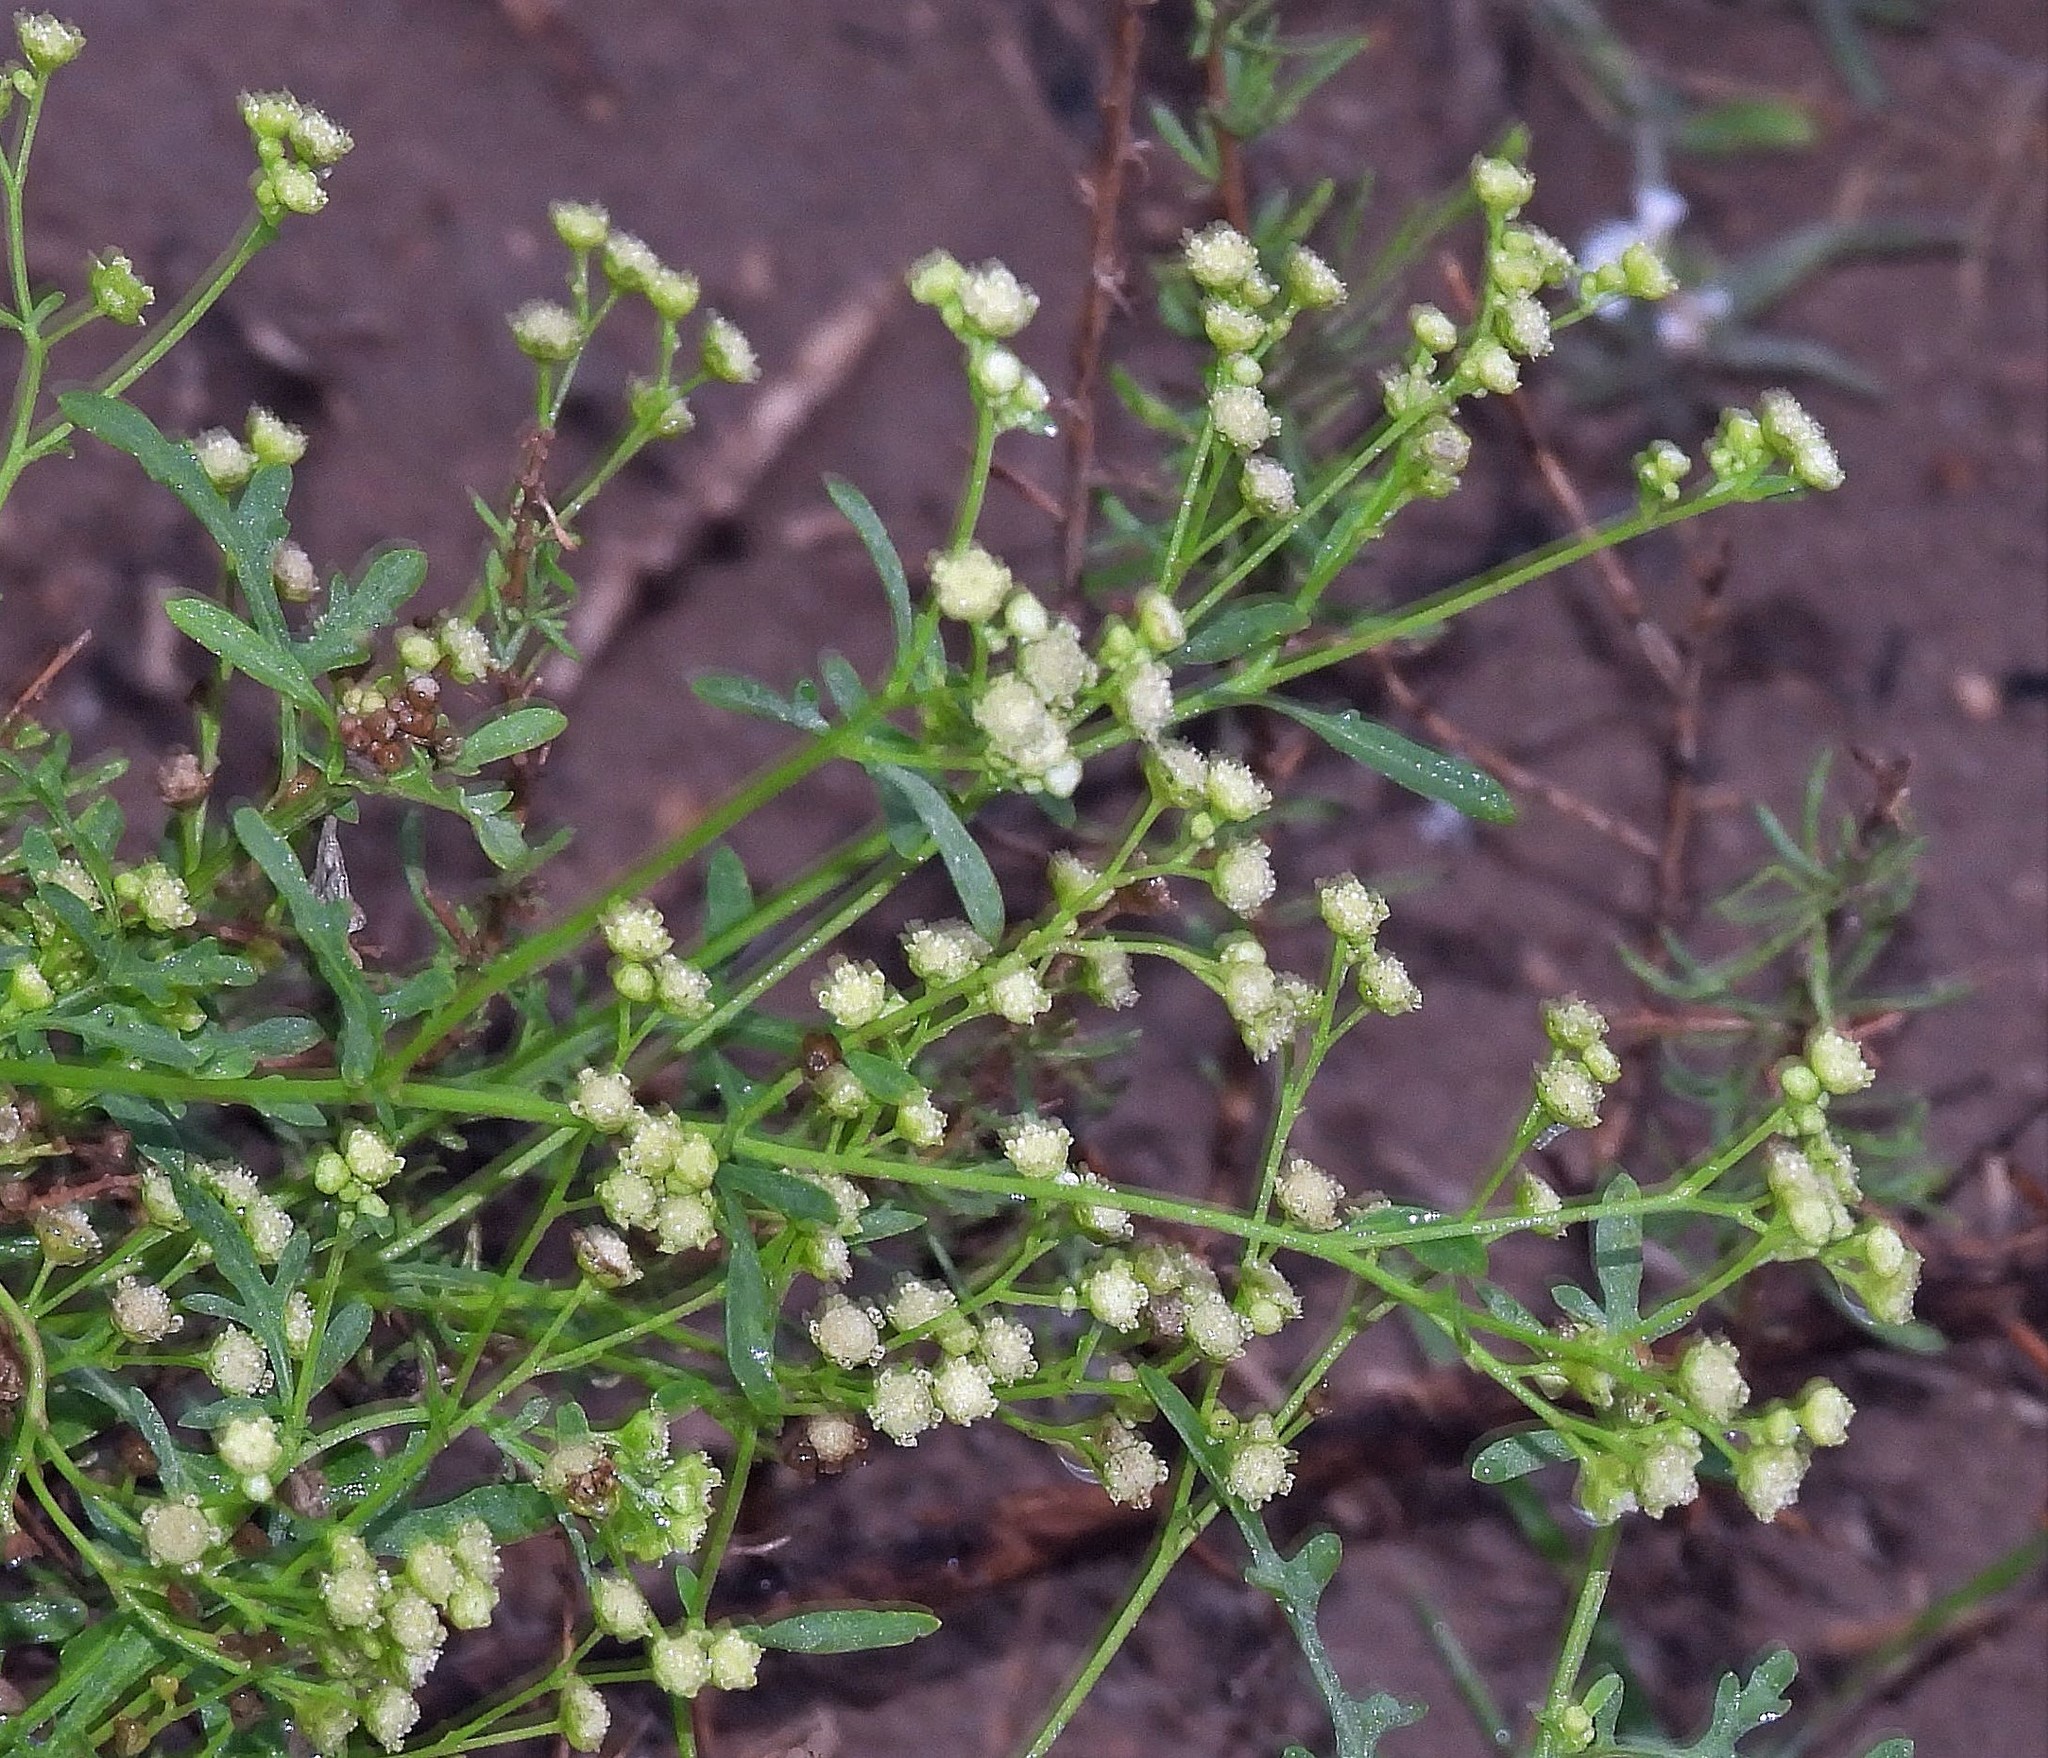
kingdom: Plantae
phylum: Tracheophyta
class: Magnoliopsida
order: Asterales
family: Asteraceae
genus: Parthenium
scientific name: Parthenium hysterophorus
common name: Santa maria feverfew
